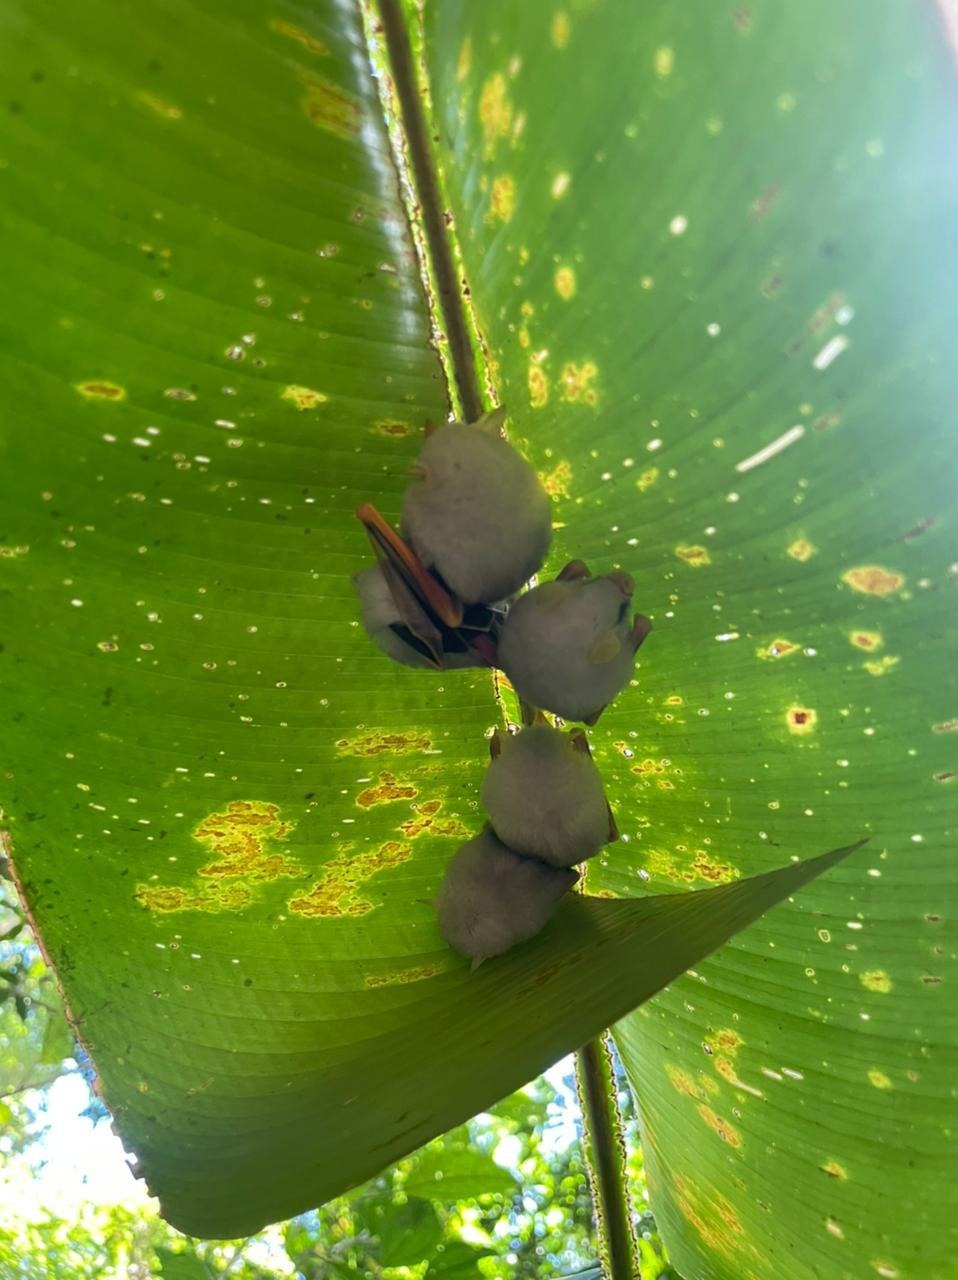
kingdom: Animalia
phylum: Chordata
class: Mammalia
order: Chiroptera
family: Phyllostomidae
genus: Ectophylla
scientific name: Ectophylla alba
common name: Honduran white bat
